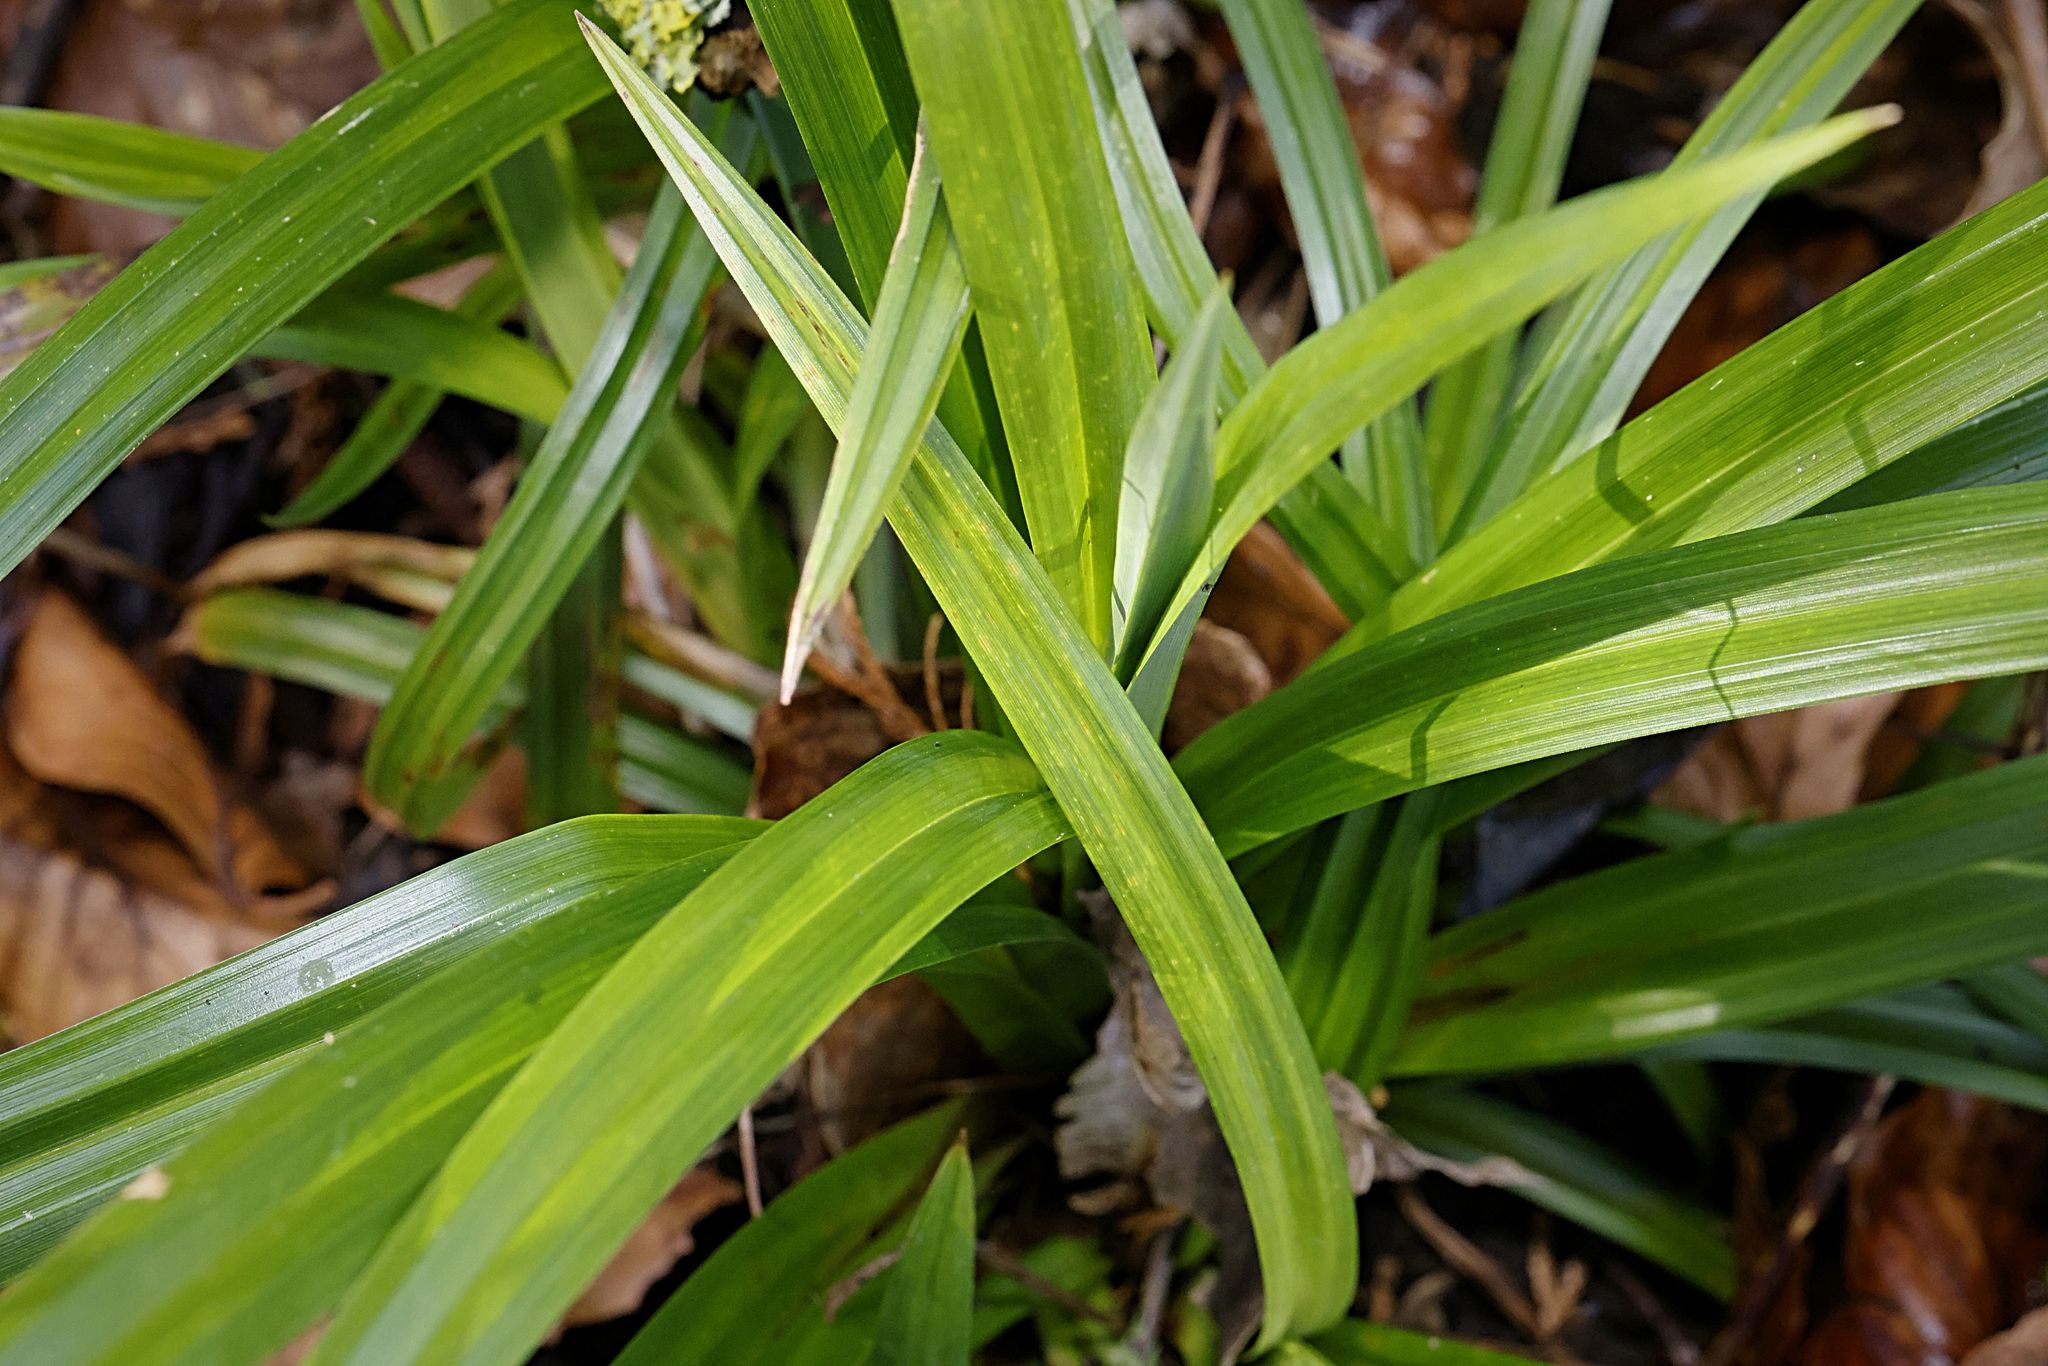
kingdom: Plantae
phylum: Tracheophyta
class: Liliopsida
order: Poales
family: Cyperaceae
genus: Carex
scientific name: Carex pendula
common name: Pendulous sedge
